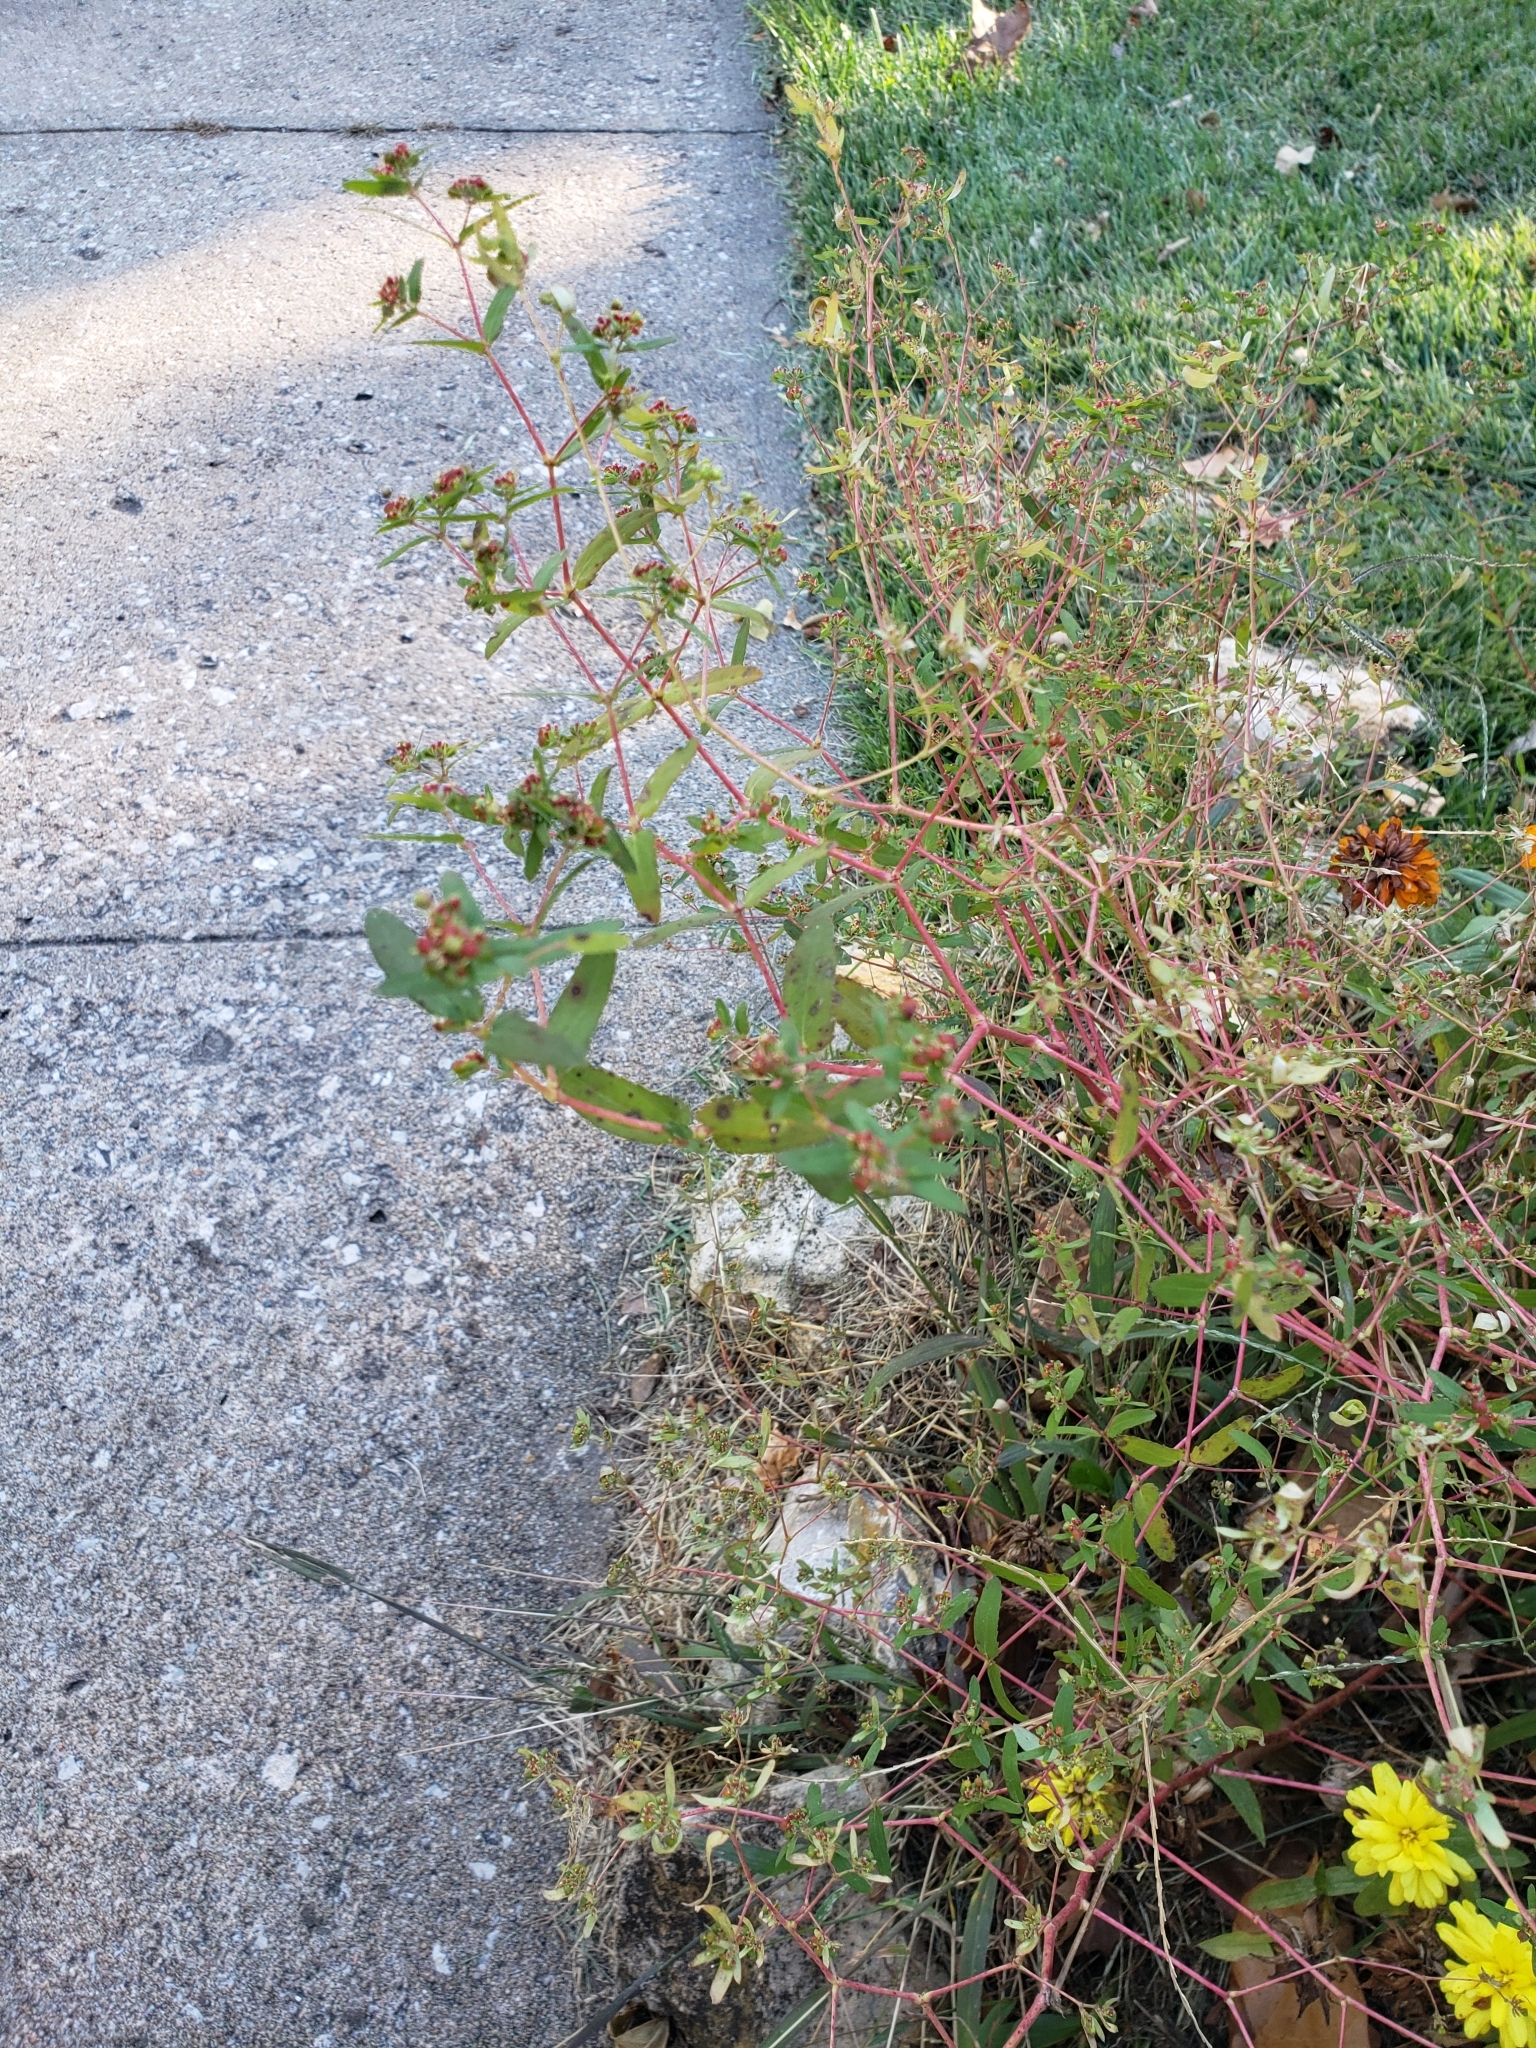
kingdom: Plantae
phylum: Tracheophyta
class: Magnoliopsida
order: Malpighiales
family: Euphorbiaceae
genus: Euphorbia
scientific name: Euphorbia nutans
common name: Eyebane
